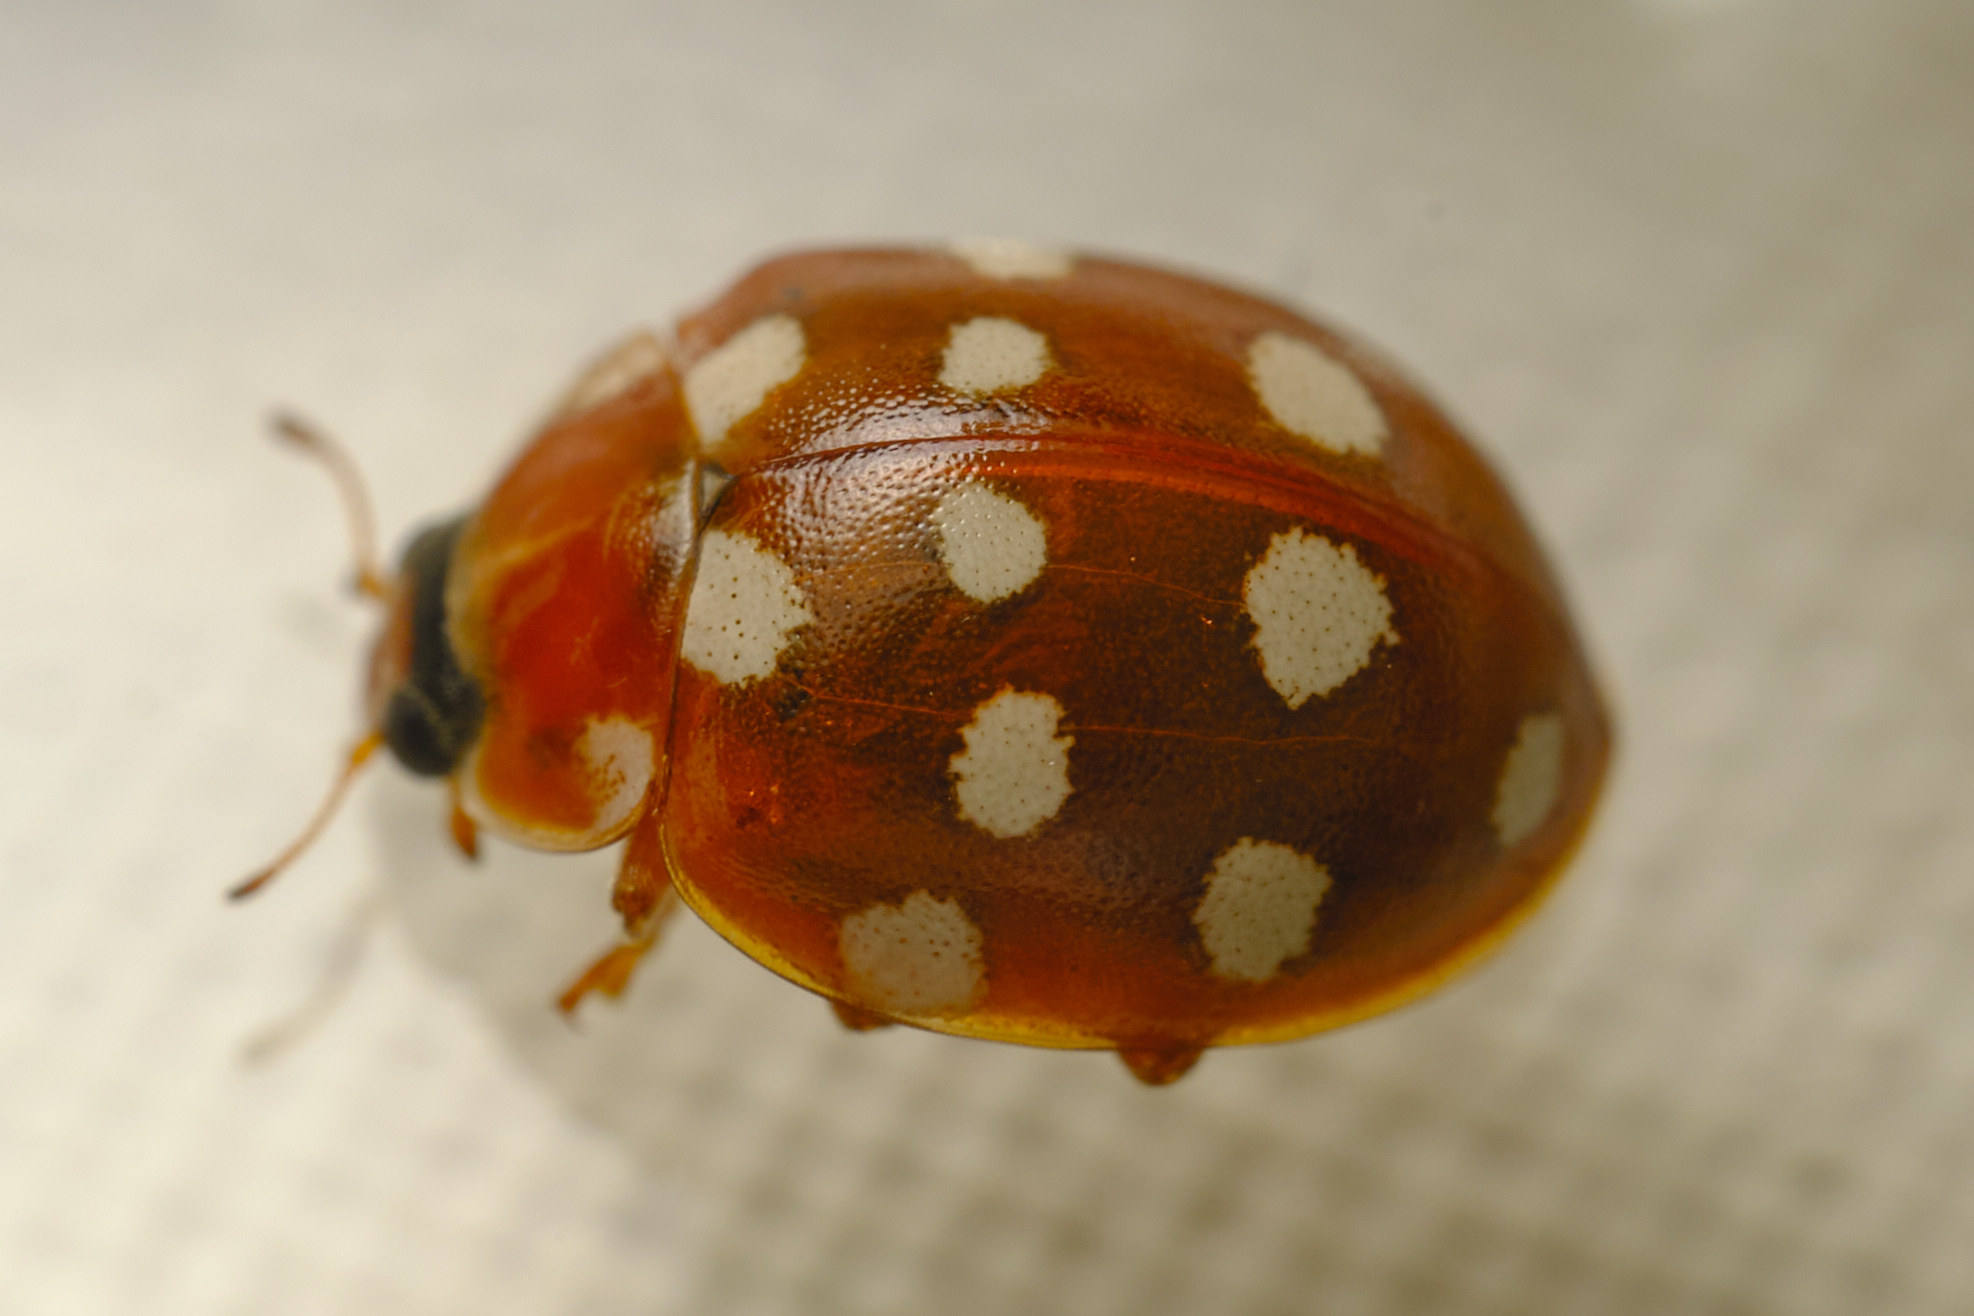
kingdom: Animalia
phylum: Arthropoda
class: Insecta
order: Coleoptera
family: Coccinellidae
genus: Calvia
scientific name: Calvia quatuordecimguttata
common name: Cream-spot ladybird
